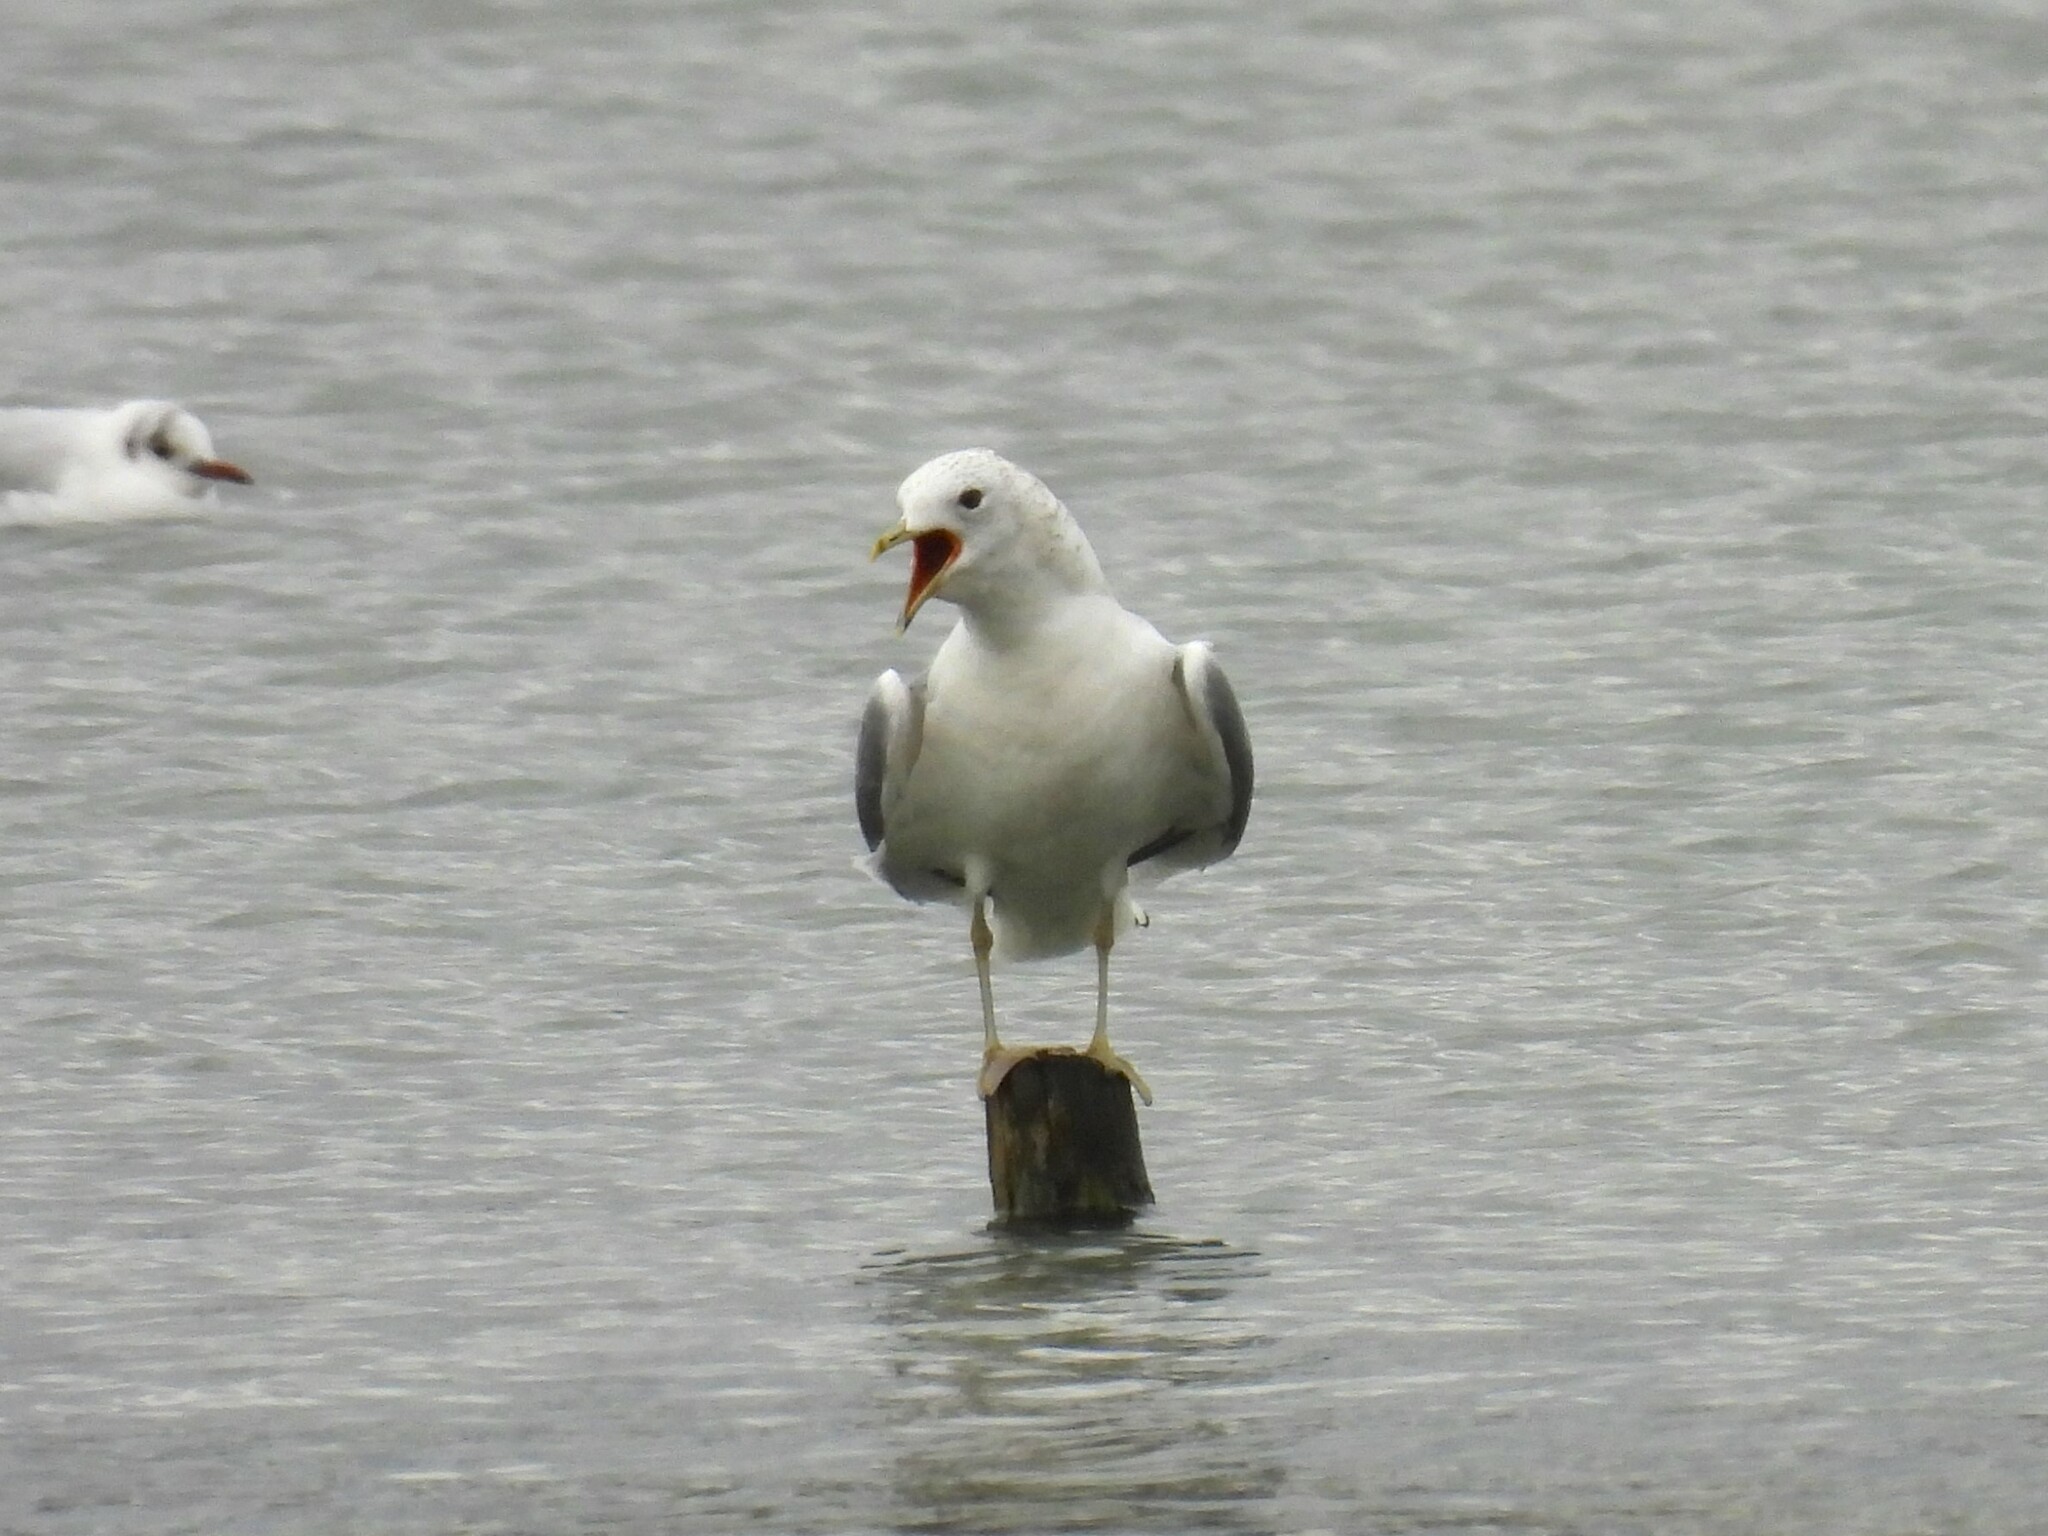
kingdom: Animalia
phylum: Chordata
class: Aves
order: Charadriiformes
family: Laridae
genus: Larus
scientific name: Larus canus
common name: Mew gull
